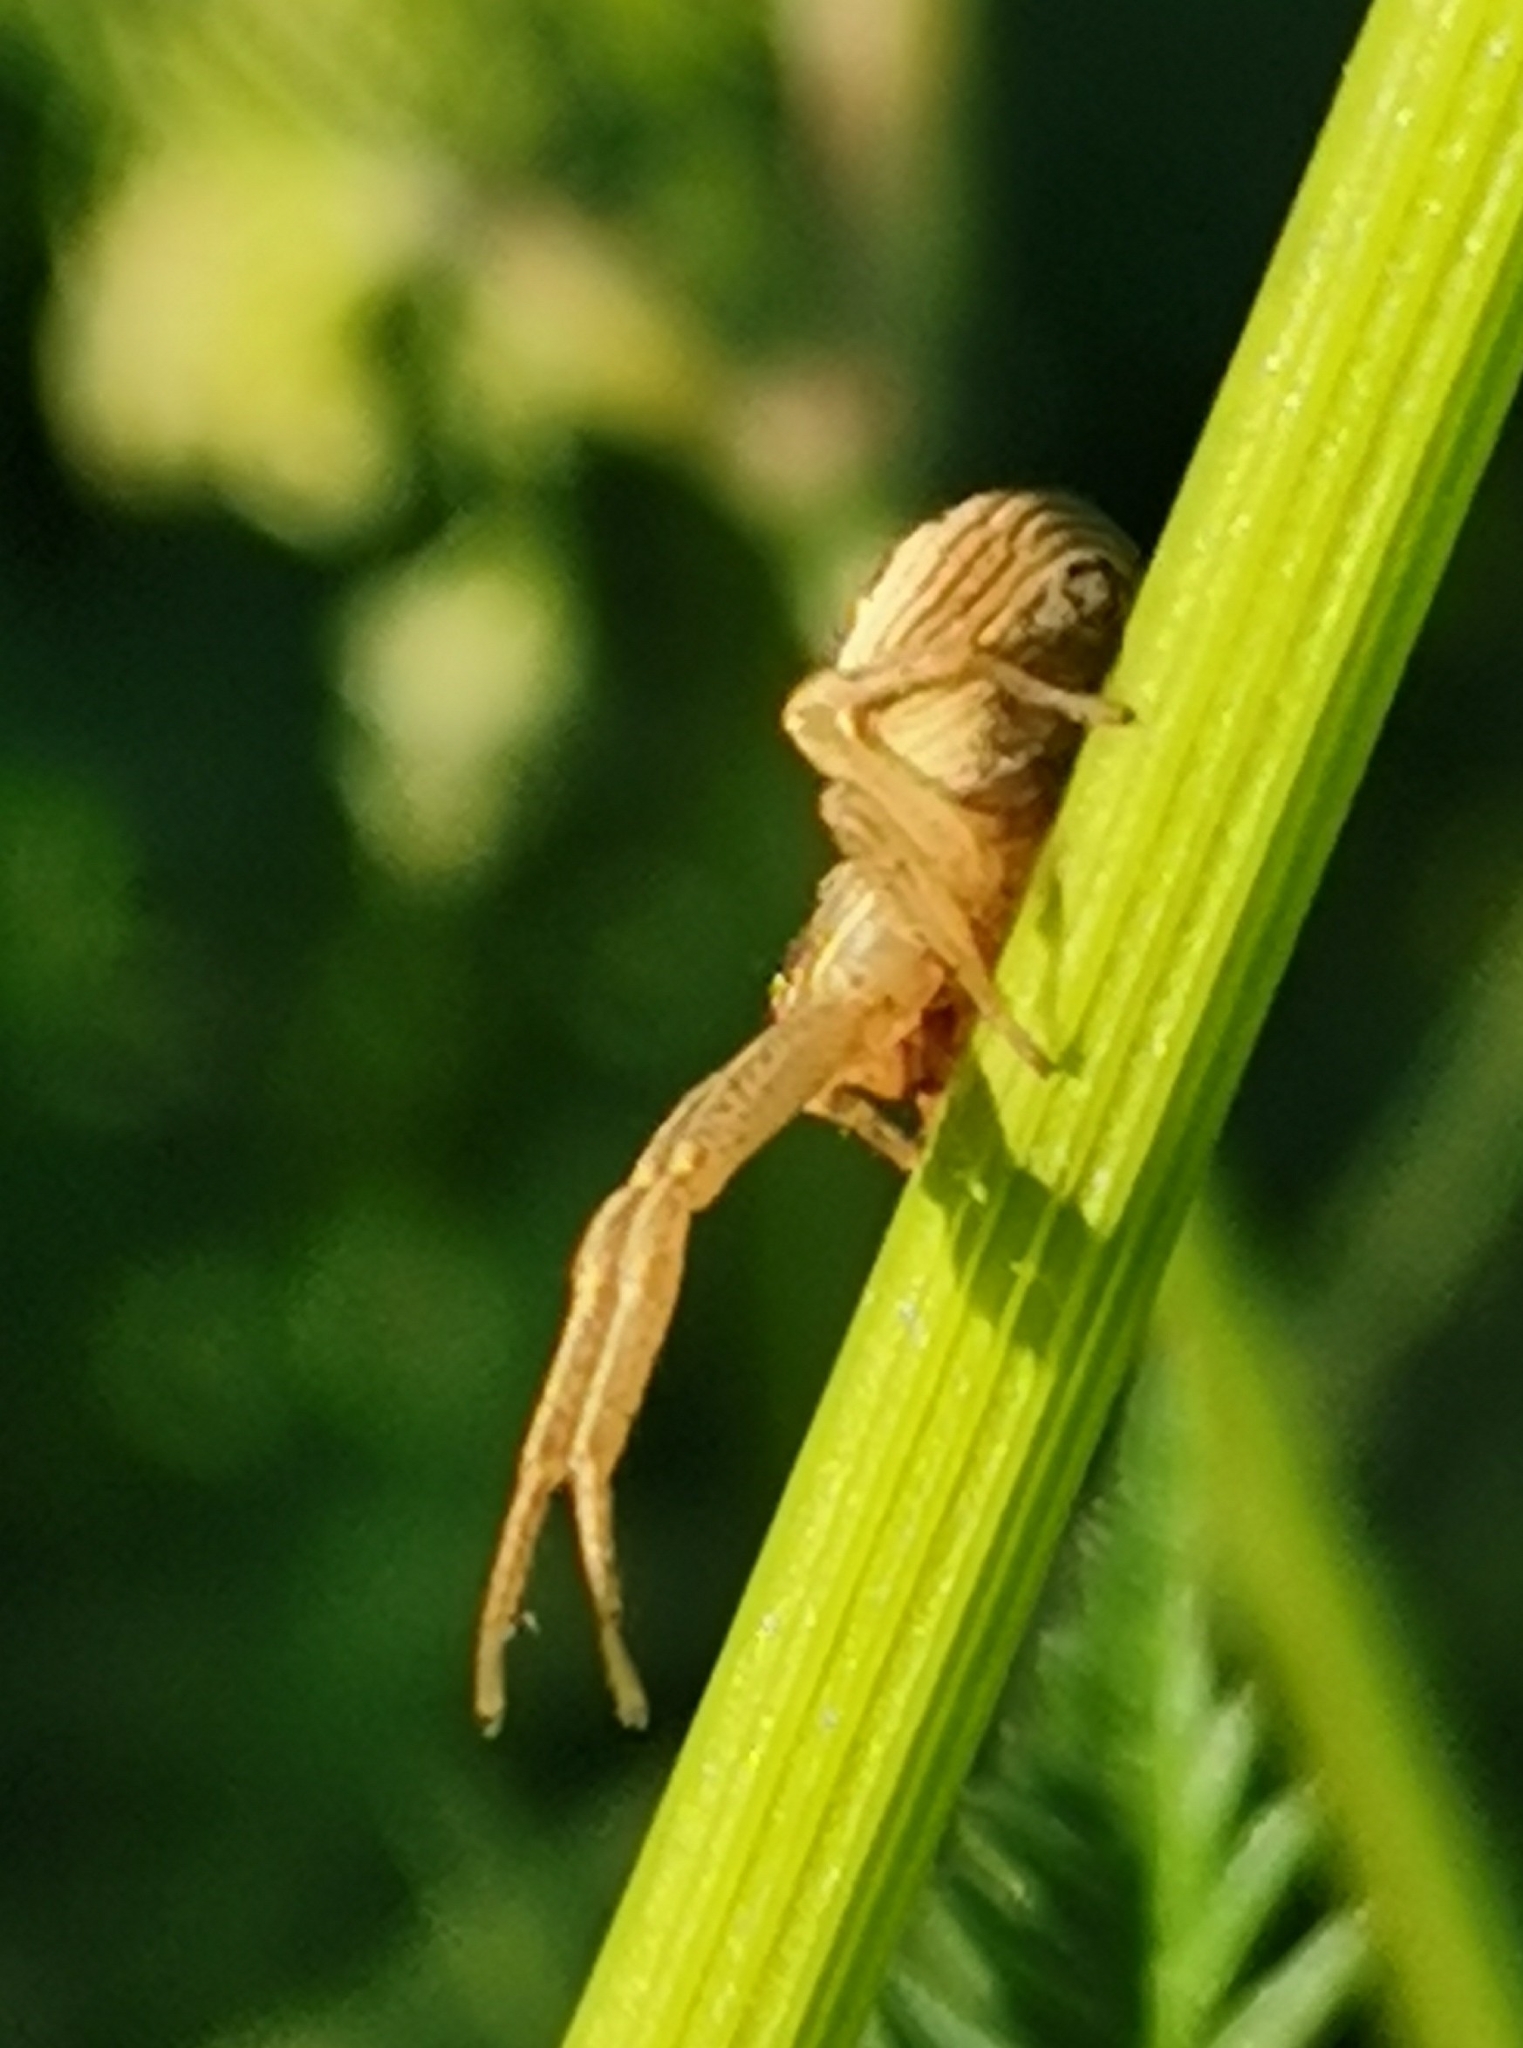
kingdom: Animalia
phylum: Arthropoda
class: Arachnida
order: Araneae
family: Thomisidae
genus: Xysticus
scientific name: Xysticus ulmi
